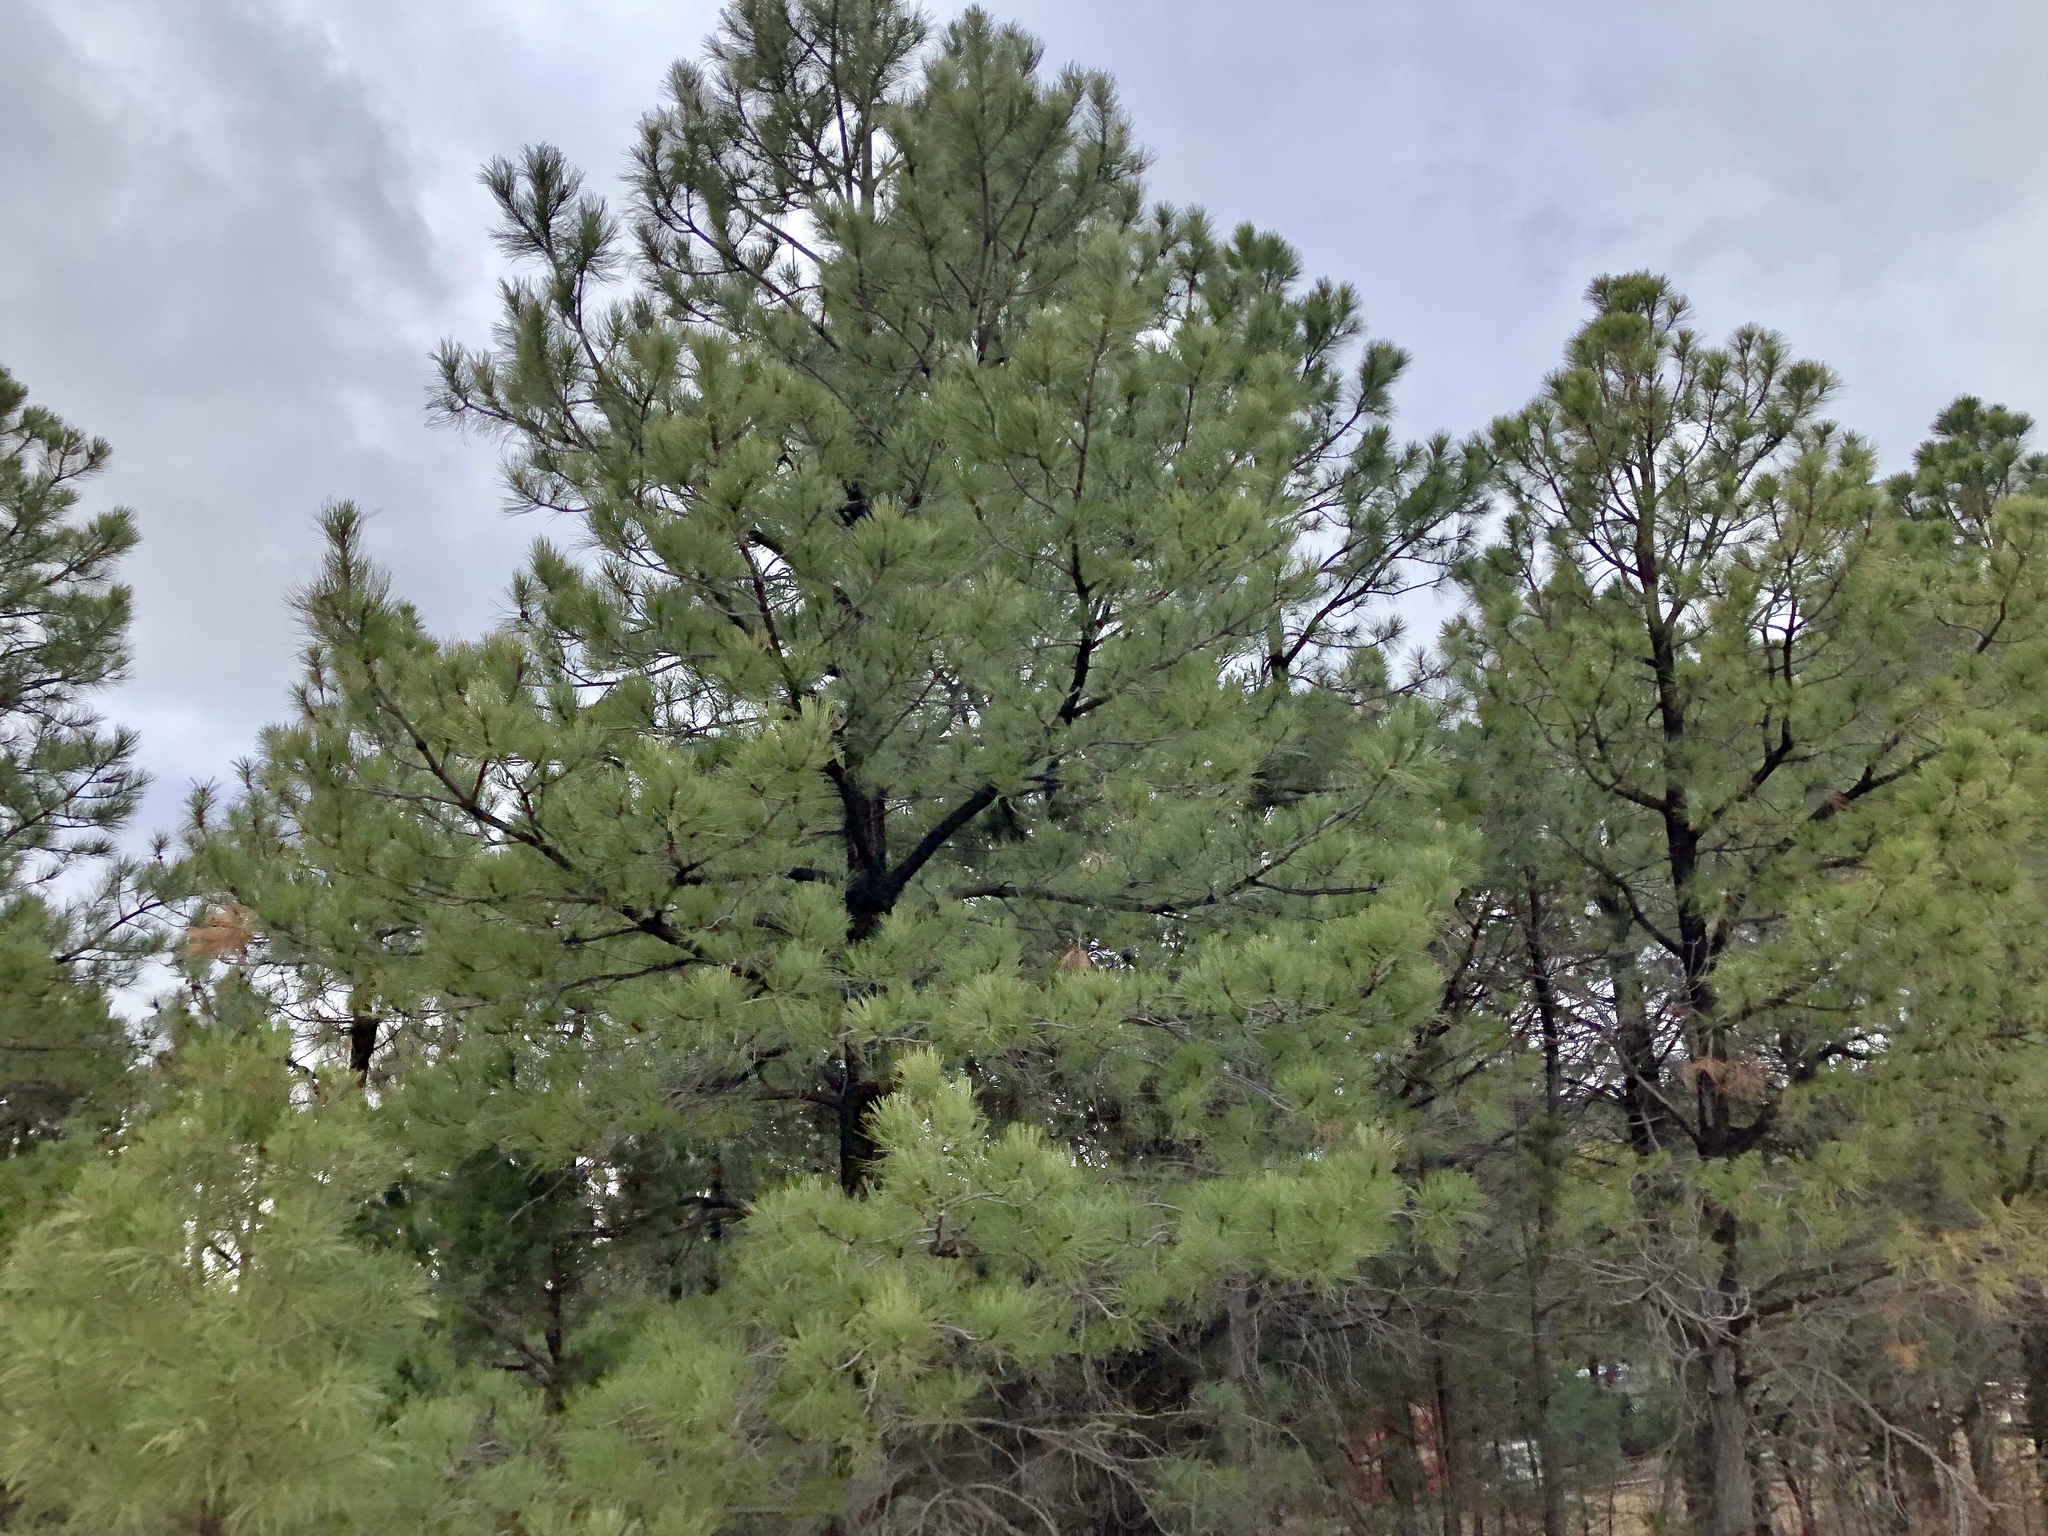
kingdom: Plantae
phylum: Tracheophyta
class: Pinopsida
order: Pinales
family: Pinaceae
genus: Pinus
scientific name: Pinus ponderosa
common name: Western yellow-pine
